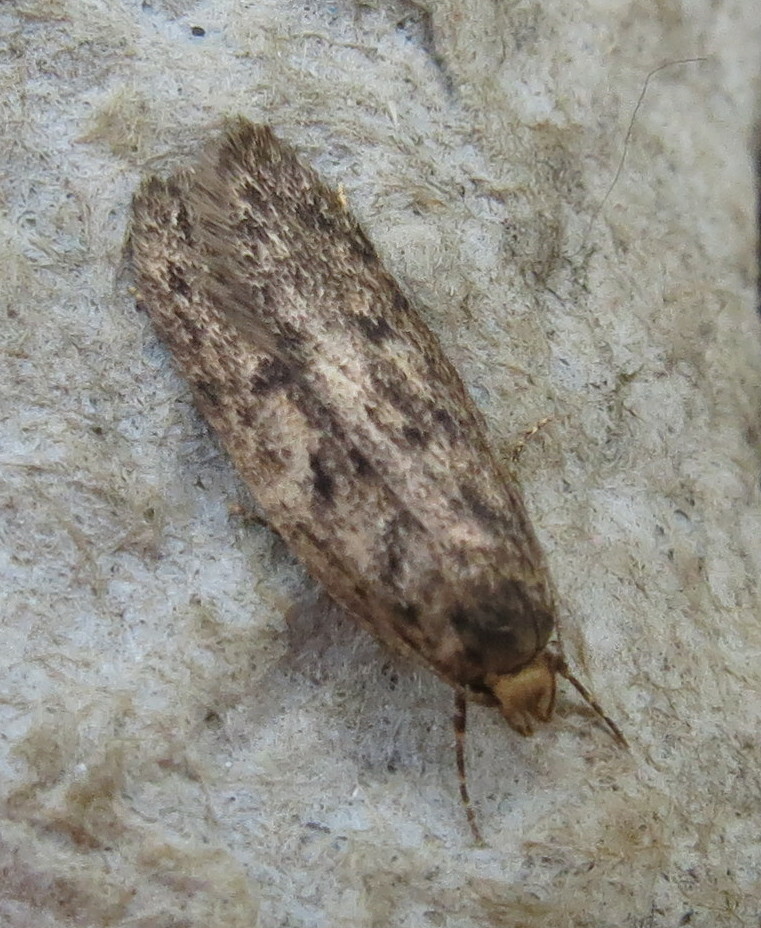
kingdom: Animalia
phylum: Arthropoda
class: Insecta
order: Lepidoptera
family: Oecophoridae
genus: Hofmannophila
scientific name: Hofmannophila pseudospretella
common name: Brown house moth
